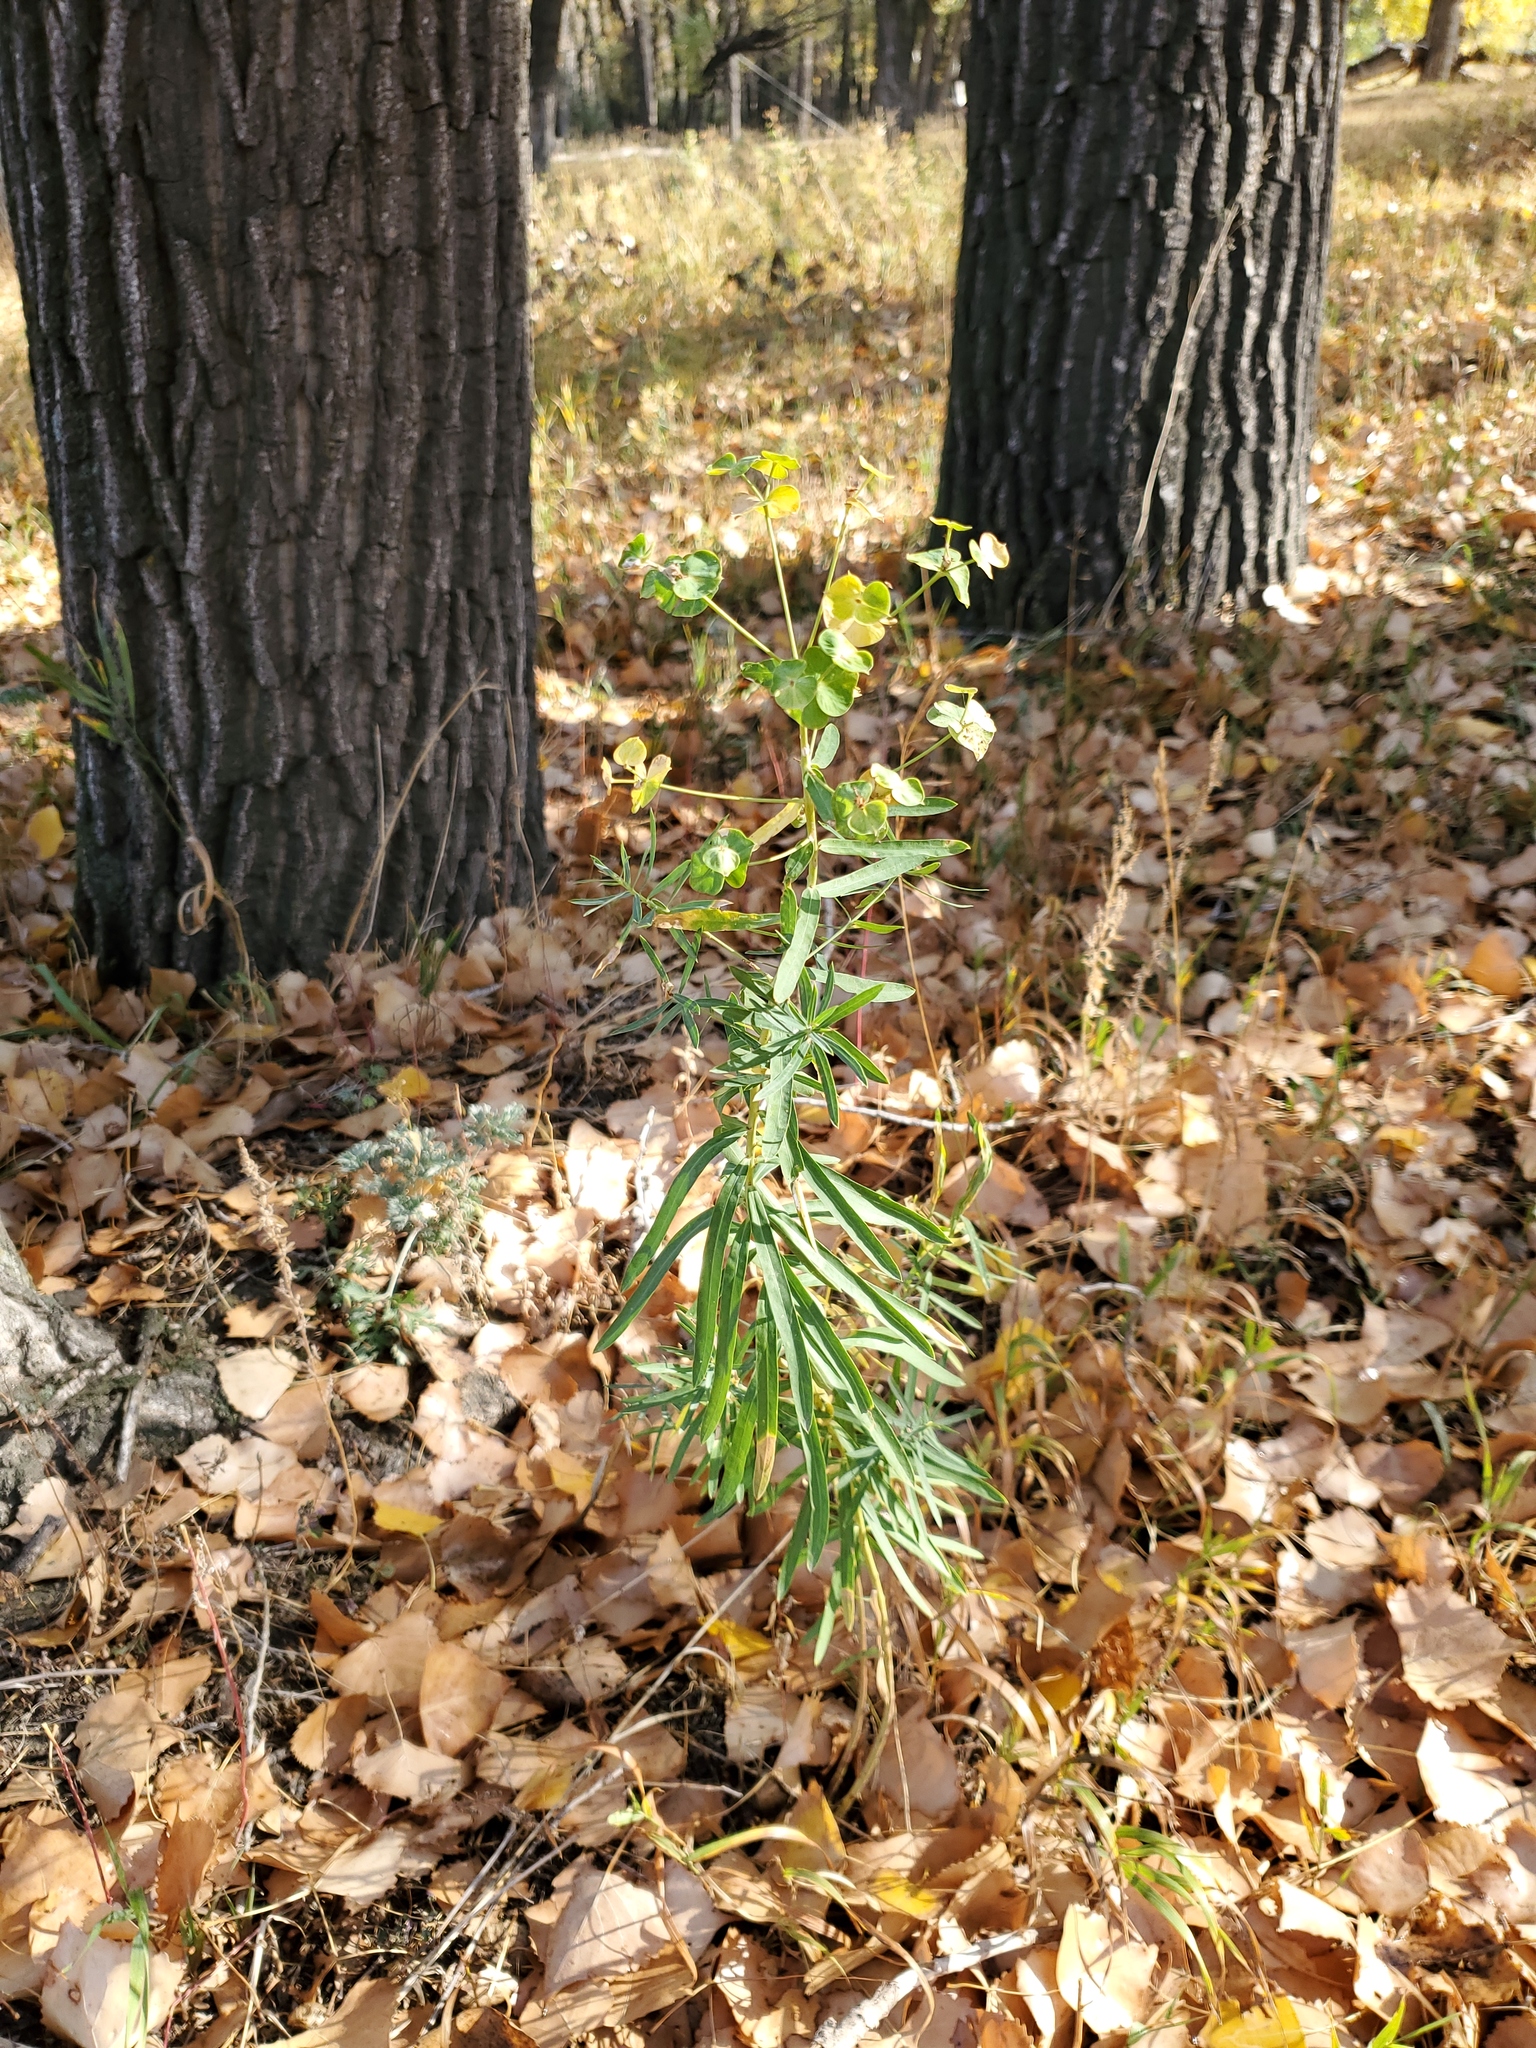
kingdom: Plantae
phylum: Tracheophyta
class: Magnoliopsida
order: Malpighiales
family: Euphorbiaceae
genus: Euphorbia
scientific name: Euphorbia virgata
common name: Leafy spurge
